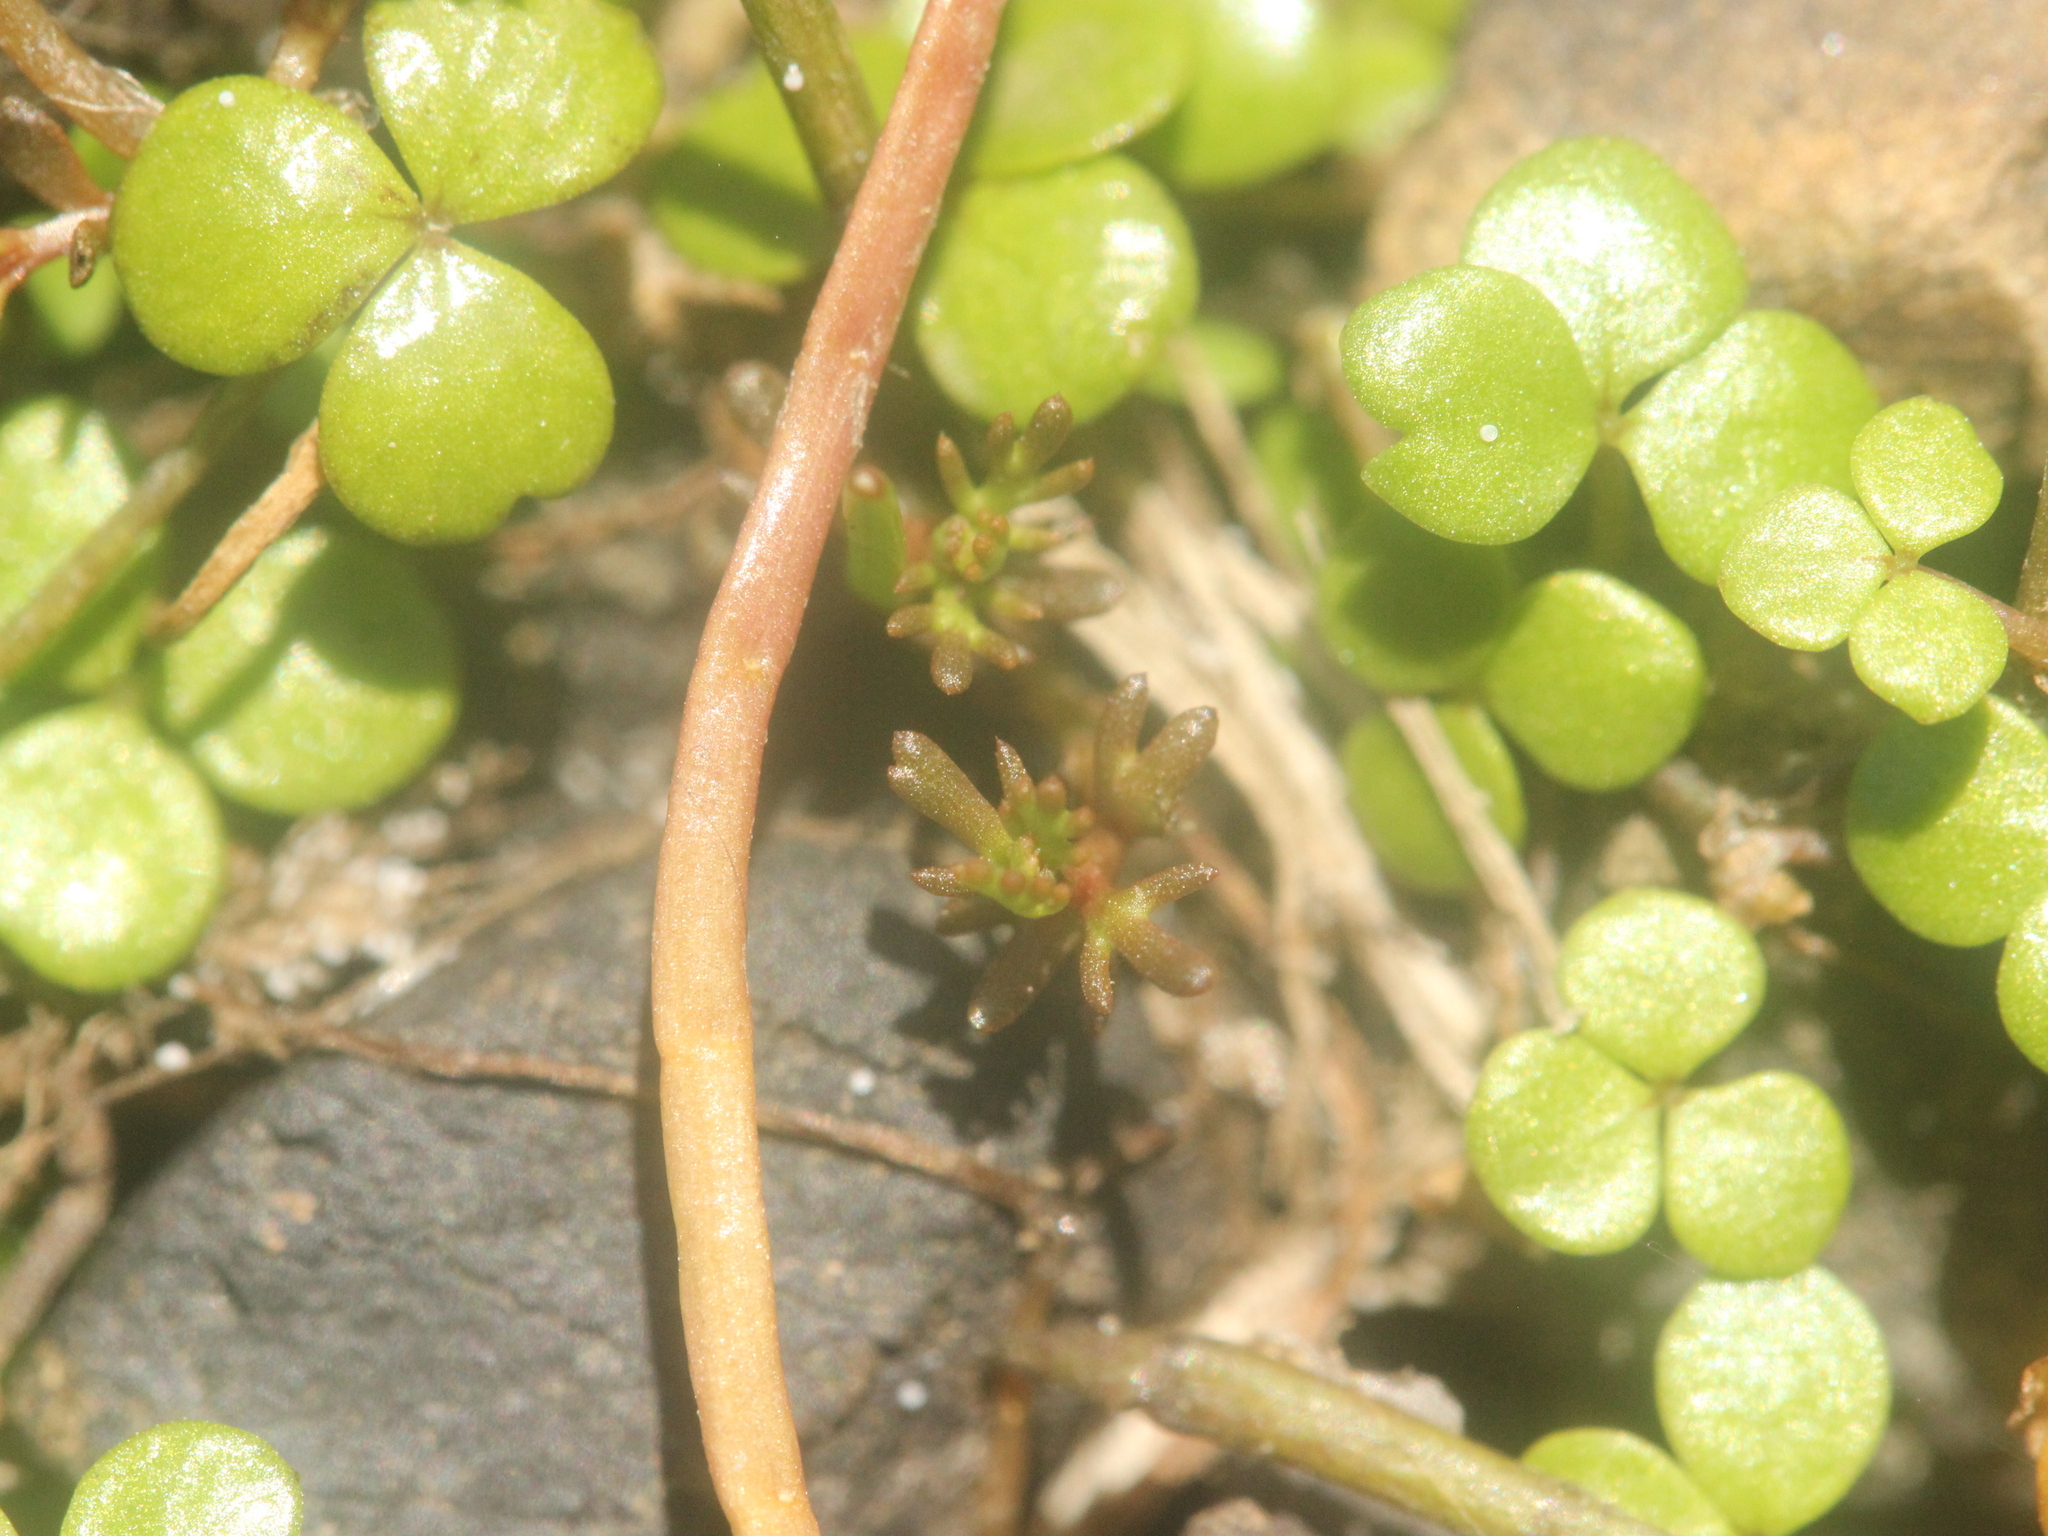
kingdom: Plantae
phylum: Tracheophyta
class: Magnoliopsida
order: Apiales
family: Araliaceae
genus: Hydrocotyle
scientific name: Hydrocotyle hydrophila
